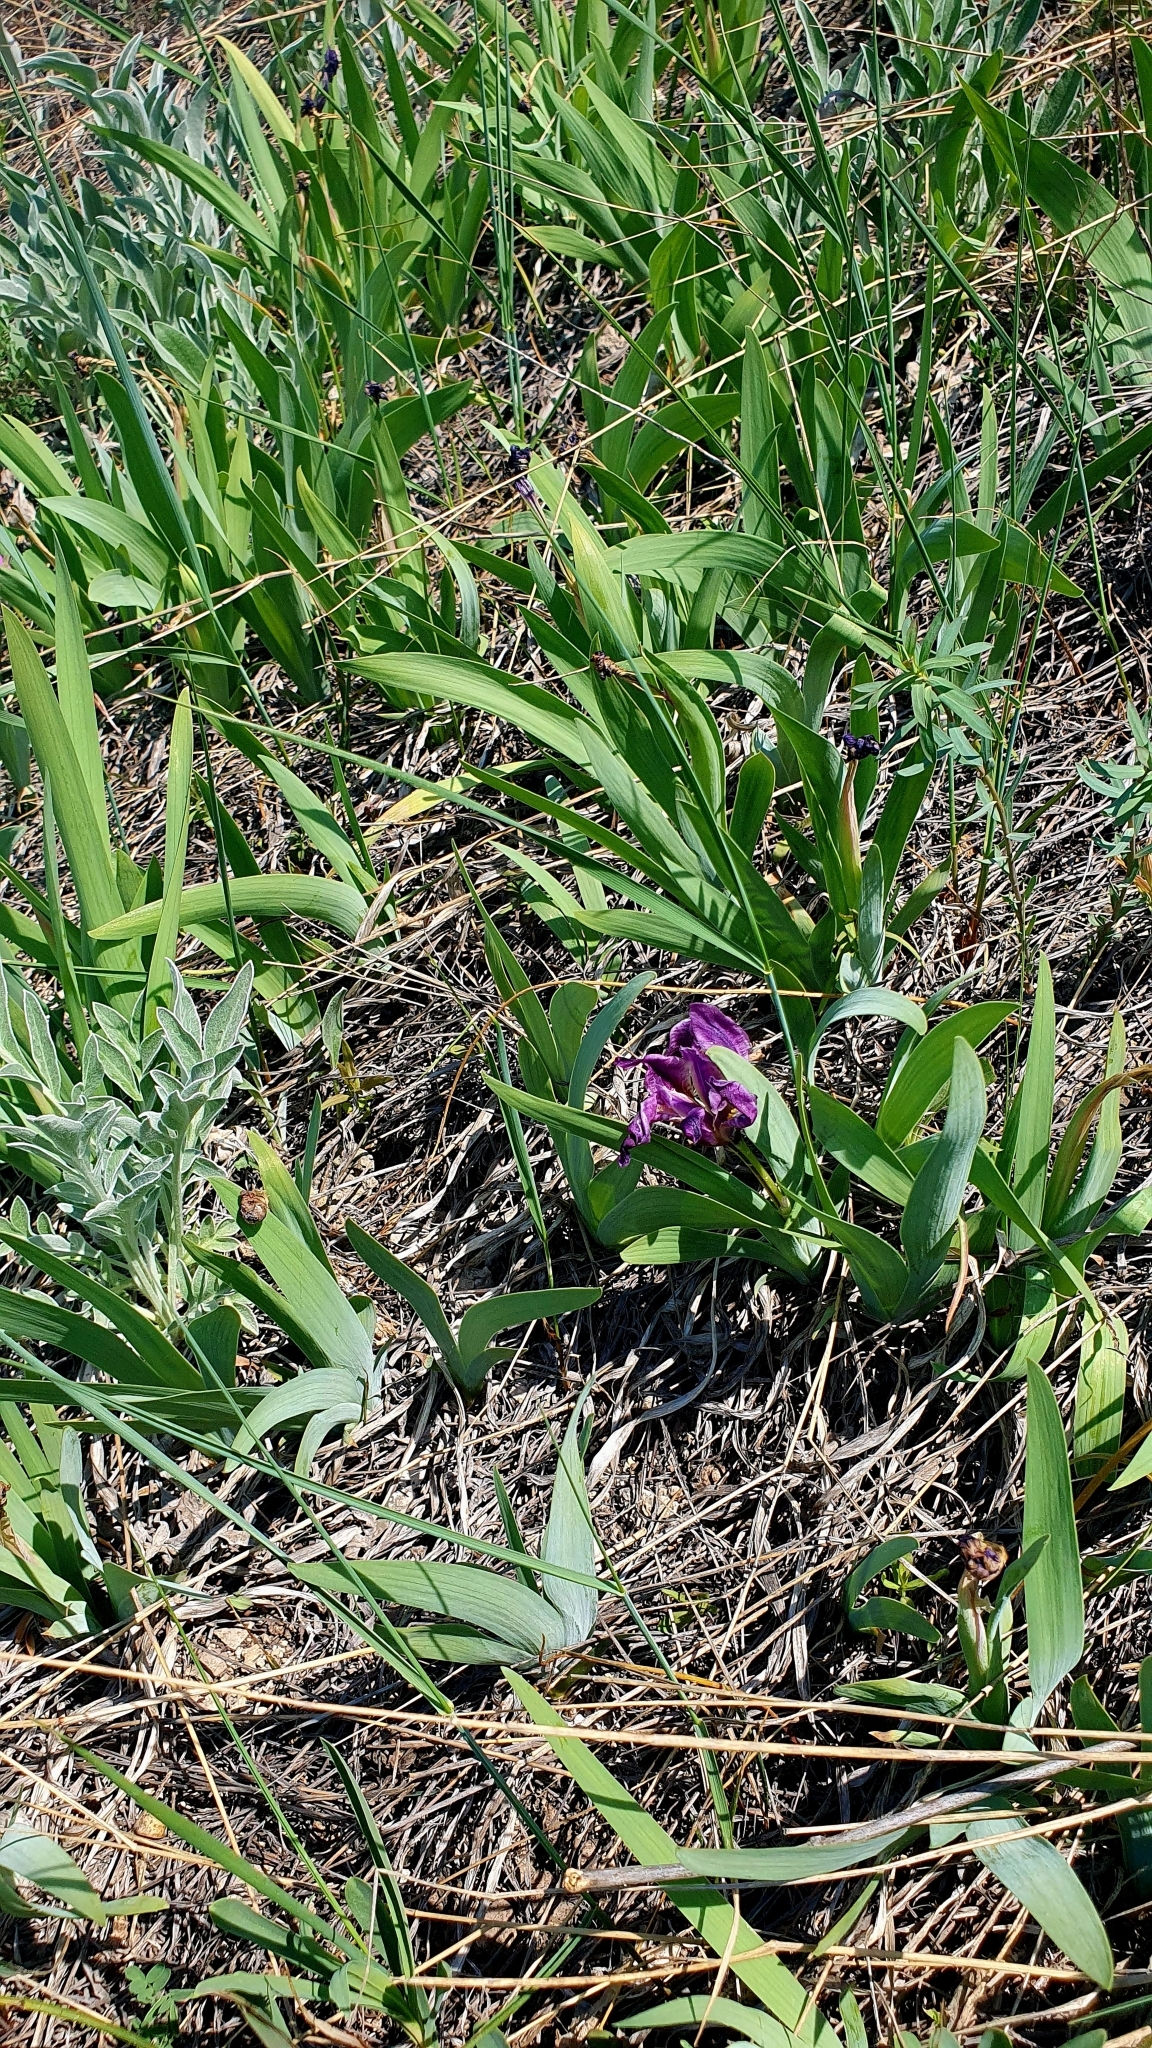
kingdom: Plantae
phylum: Tracheophyta
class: Liliopsida
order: Asparagales
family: Iridaceae
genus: Iris
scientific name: Iris pumila
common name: Dwarf iris
